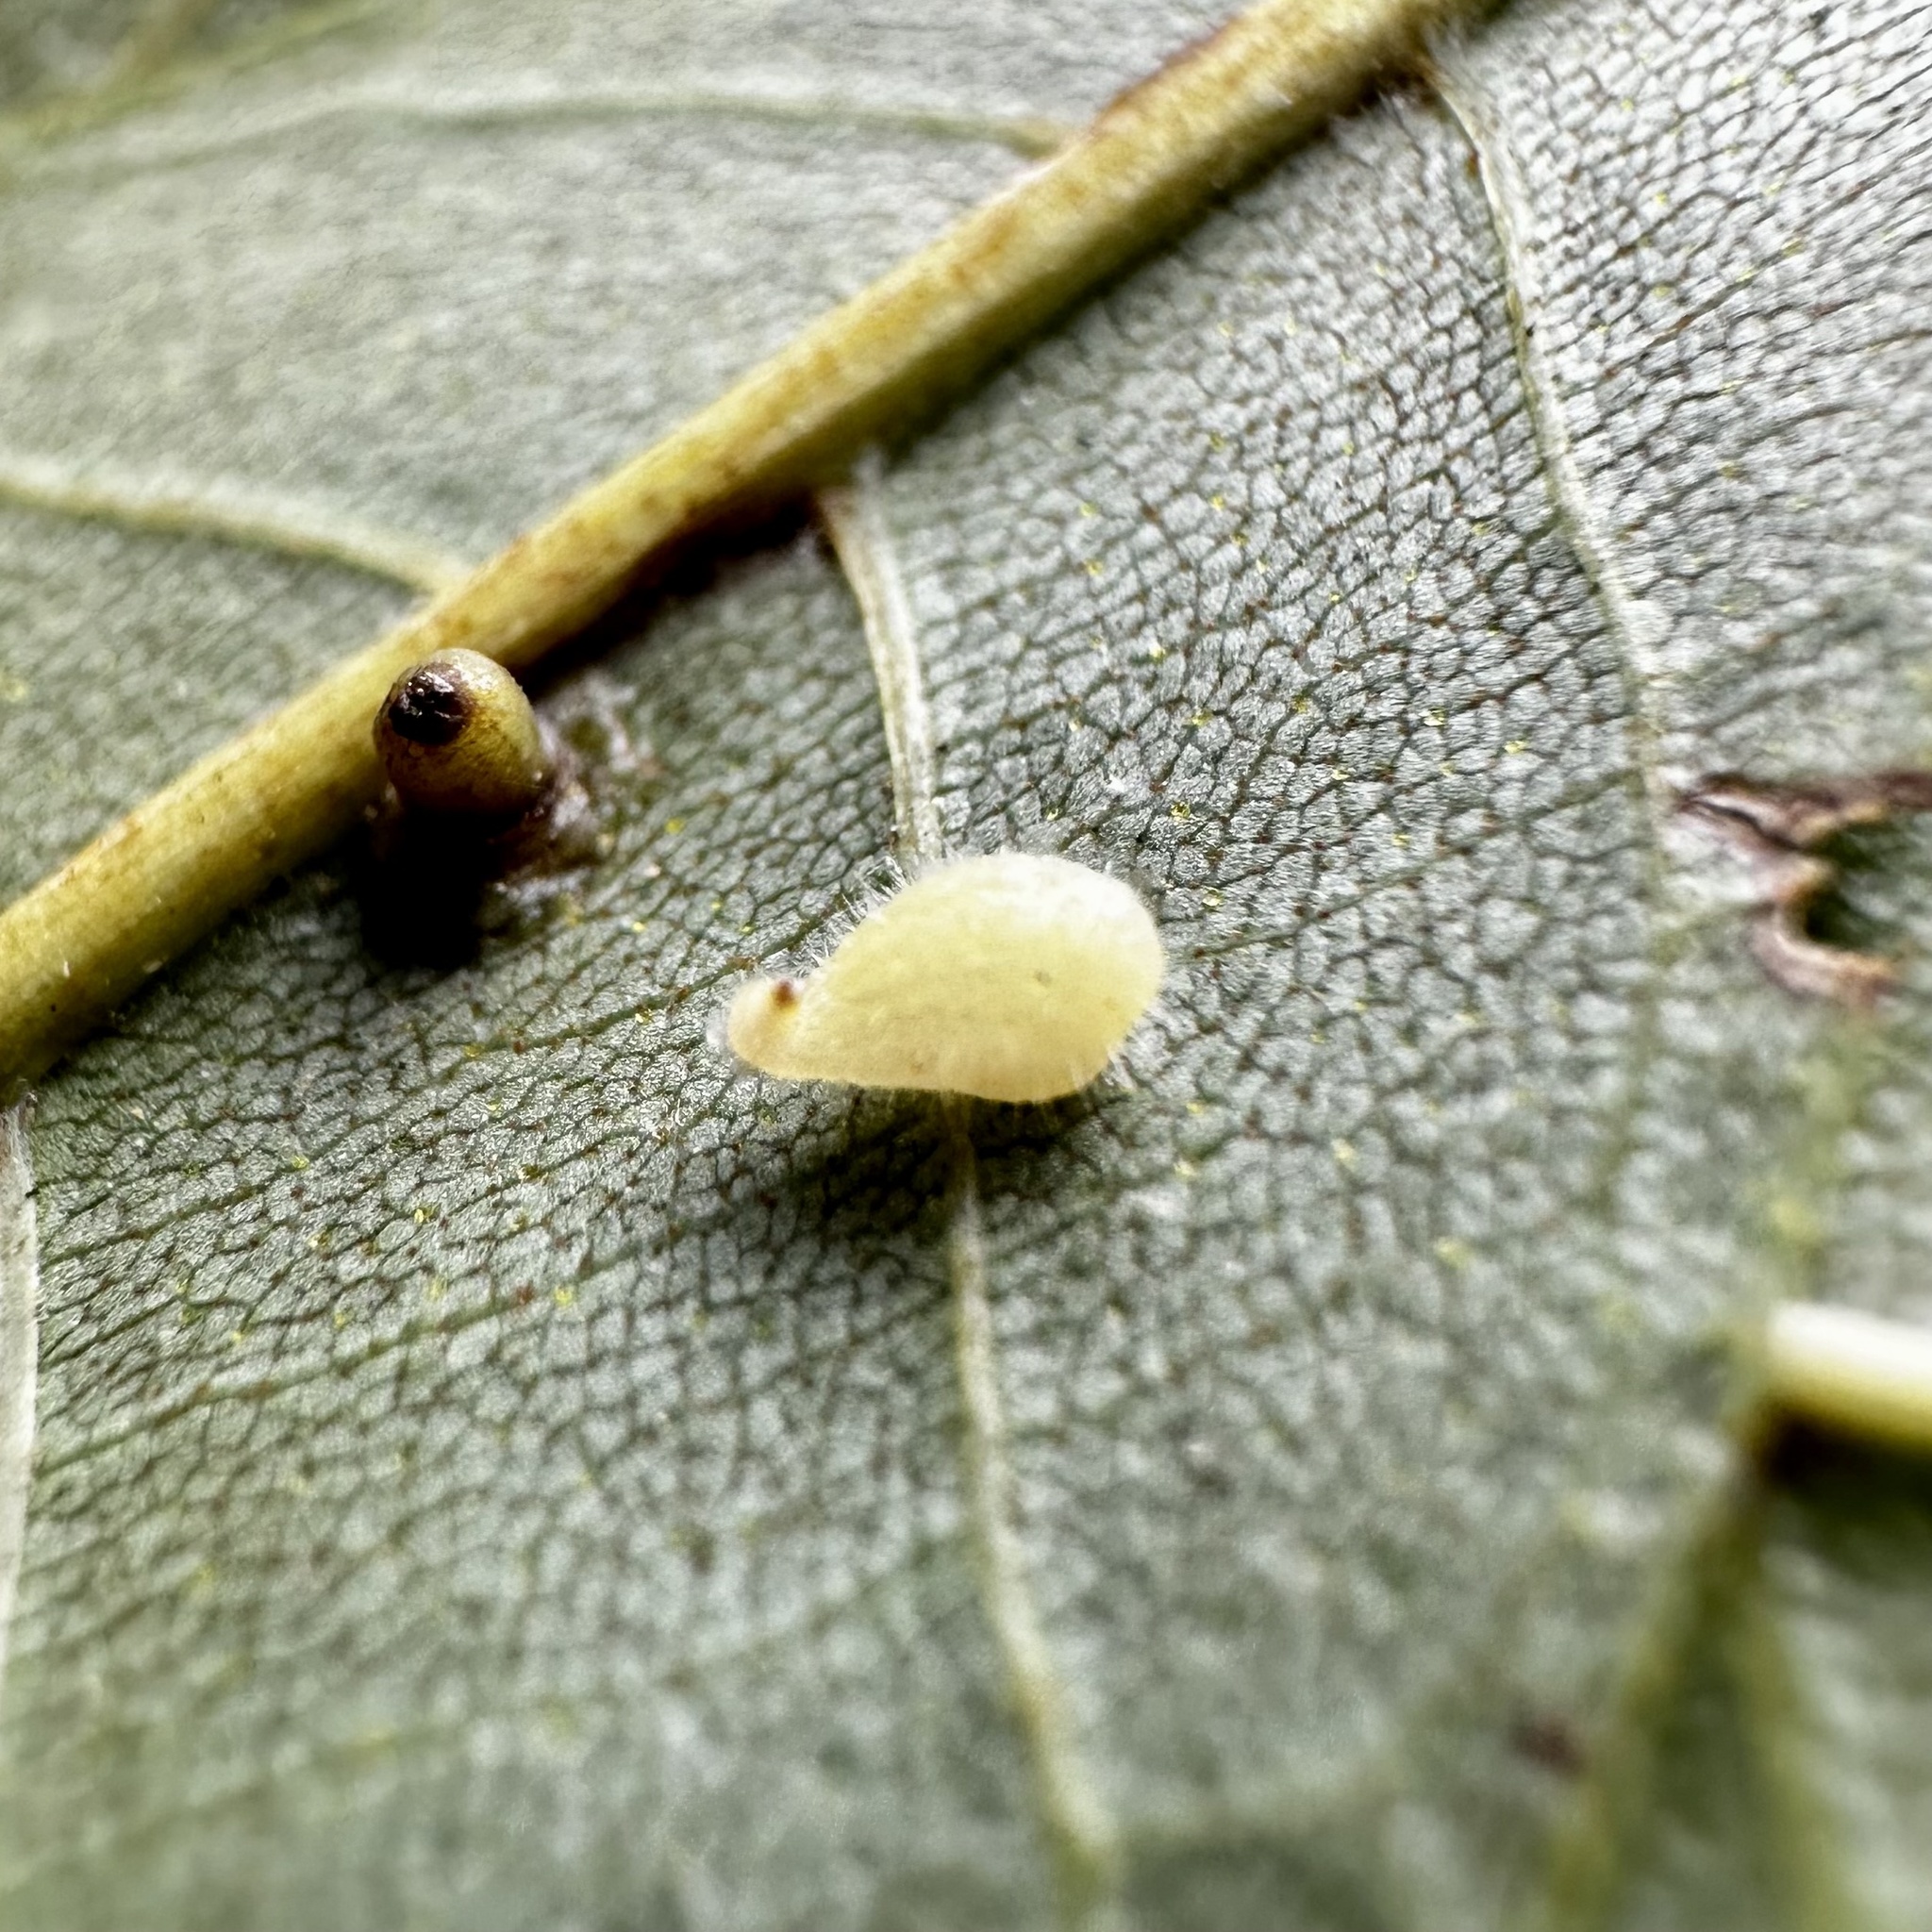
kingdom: Animalia
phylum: Arthropoda
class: Insecta
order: Diptera
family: Cecidomyiidae
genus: Caryomyia
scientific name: Caryomyia eumaris
